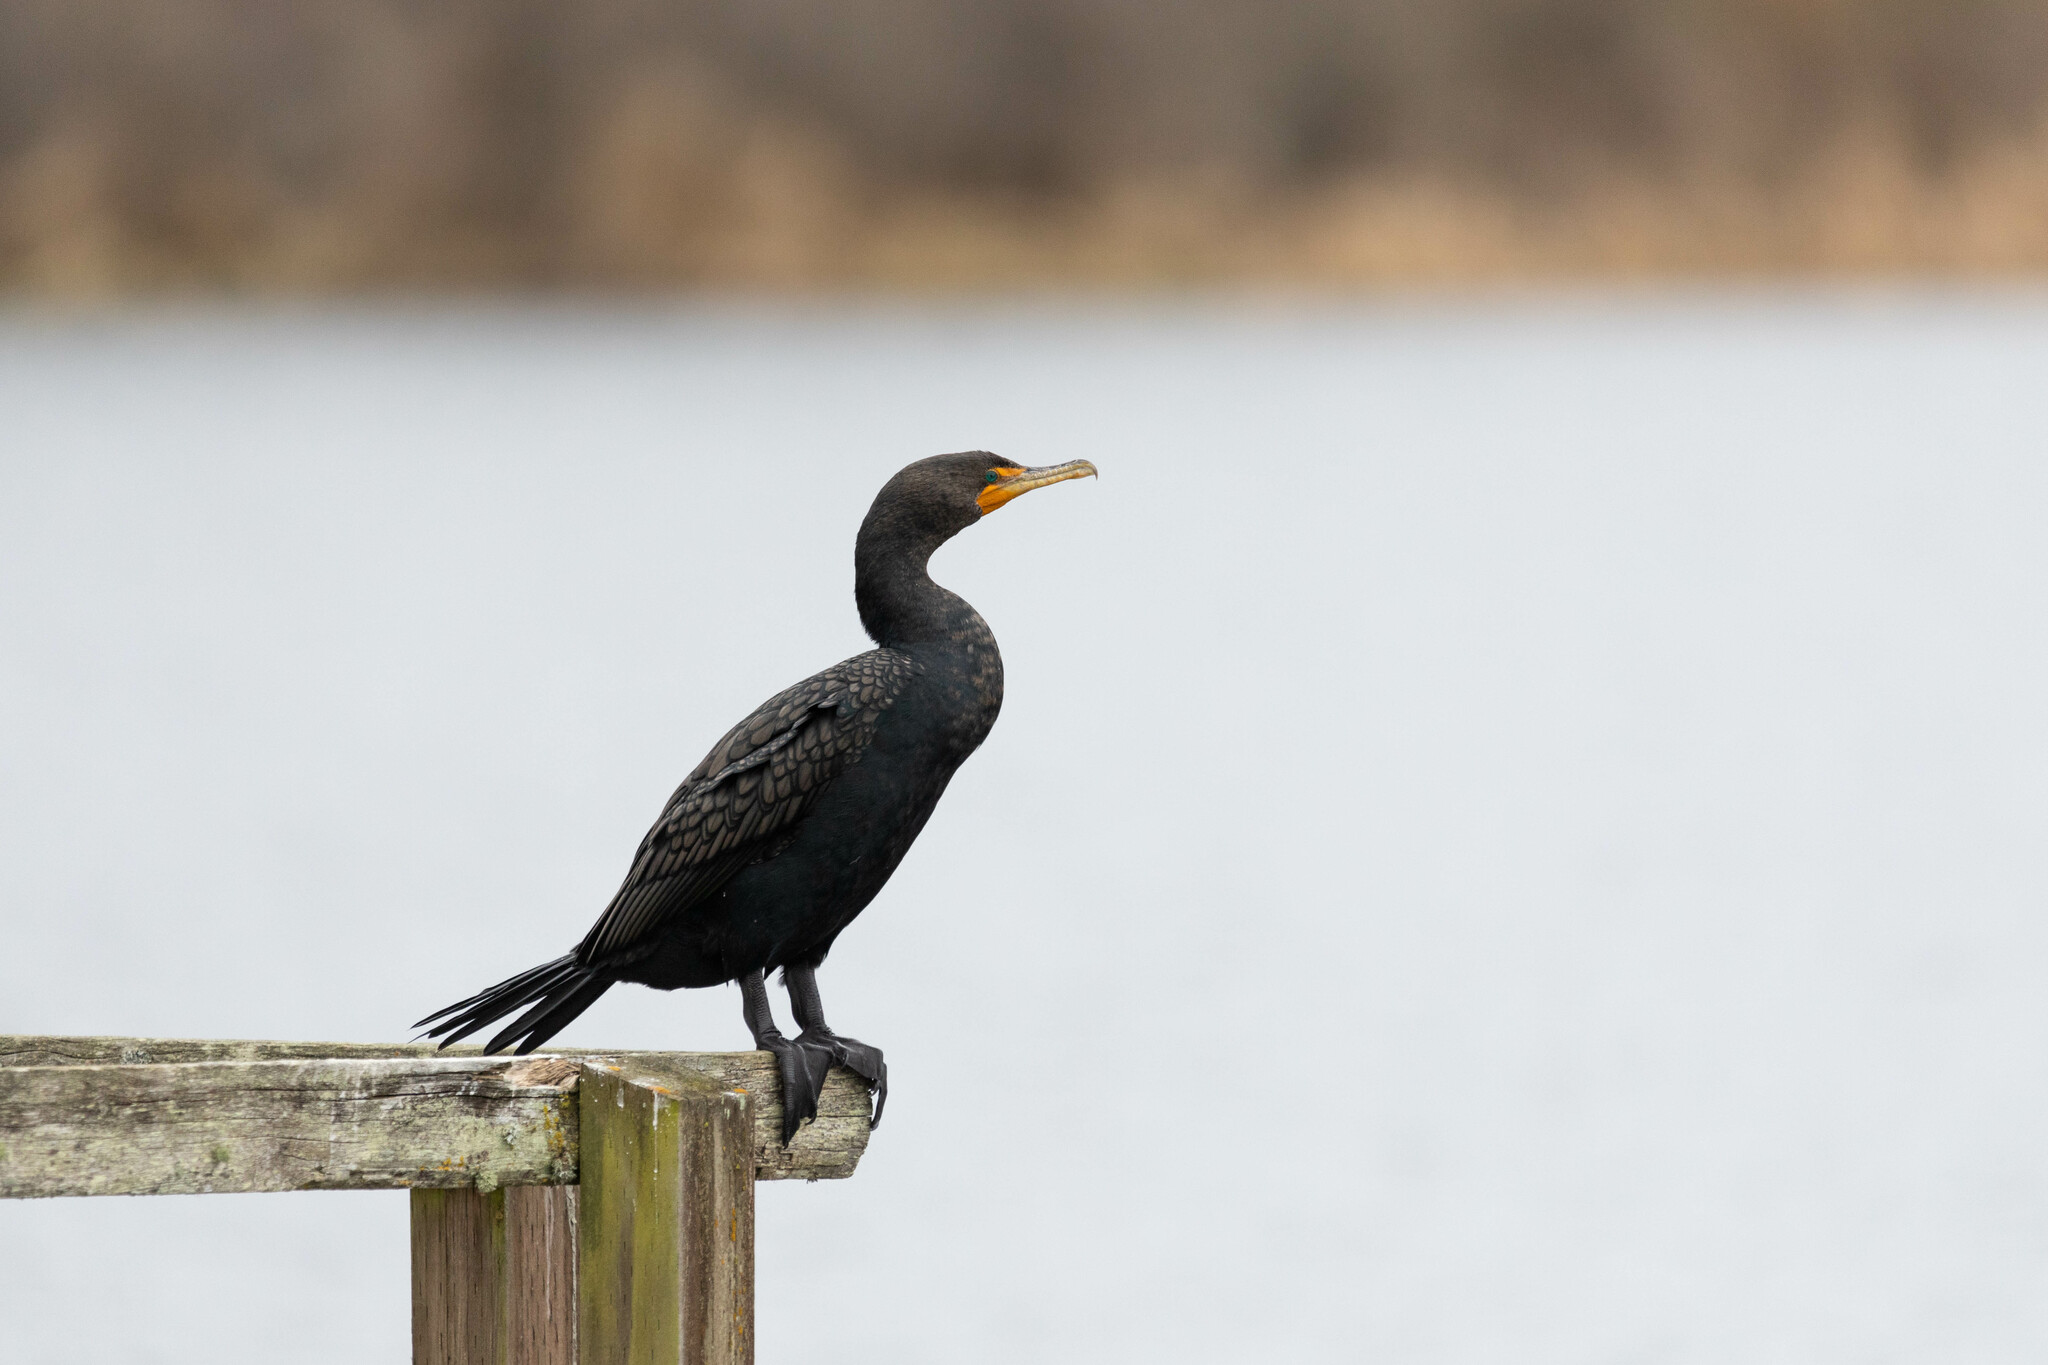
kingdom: Animalia
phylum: Chordata
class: Aves
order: Suliformes
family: Phalacrocoracidae
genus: Phalacrocorax
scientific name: Phalacrocorax auritus
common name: Double-crested cormorant
